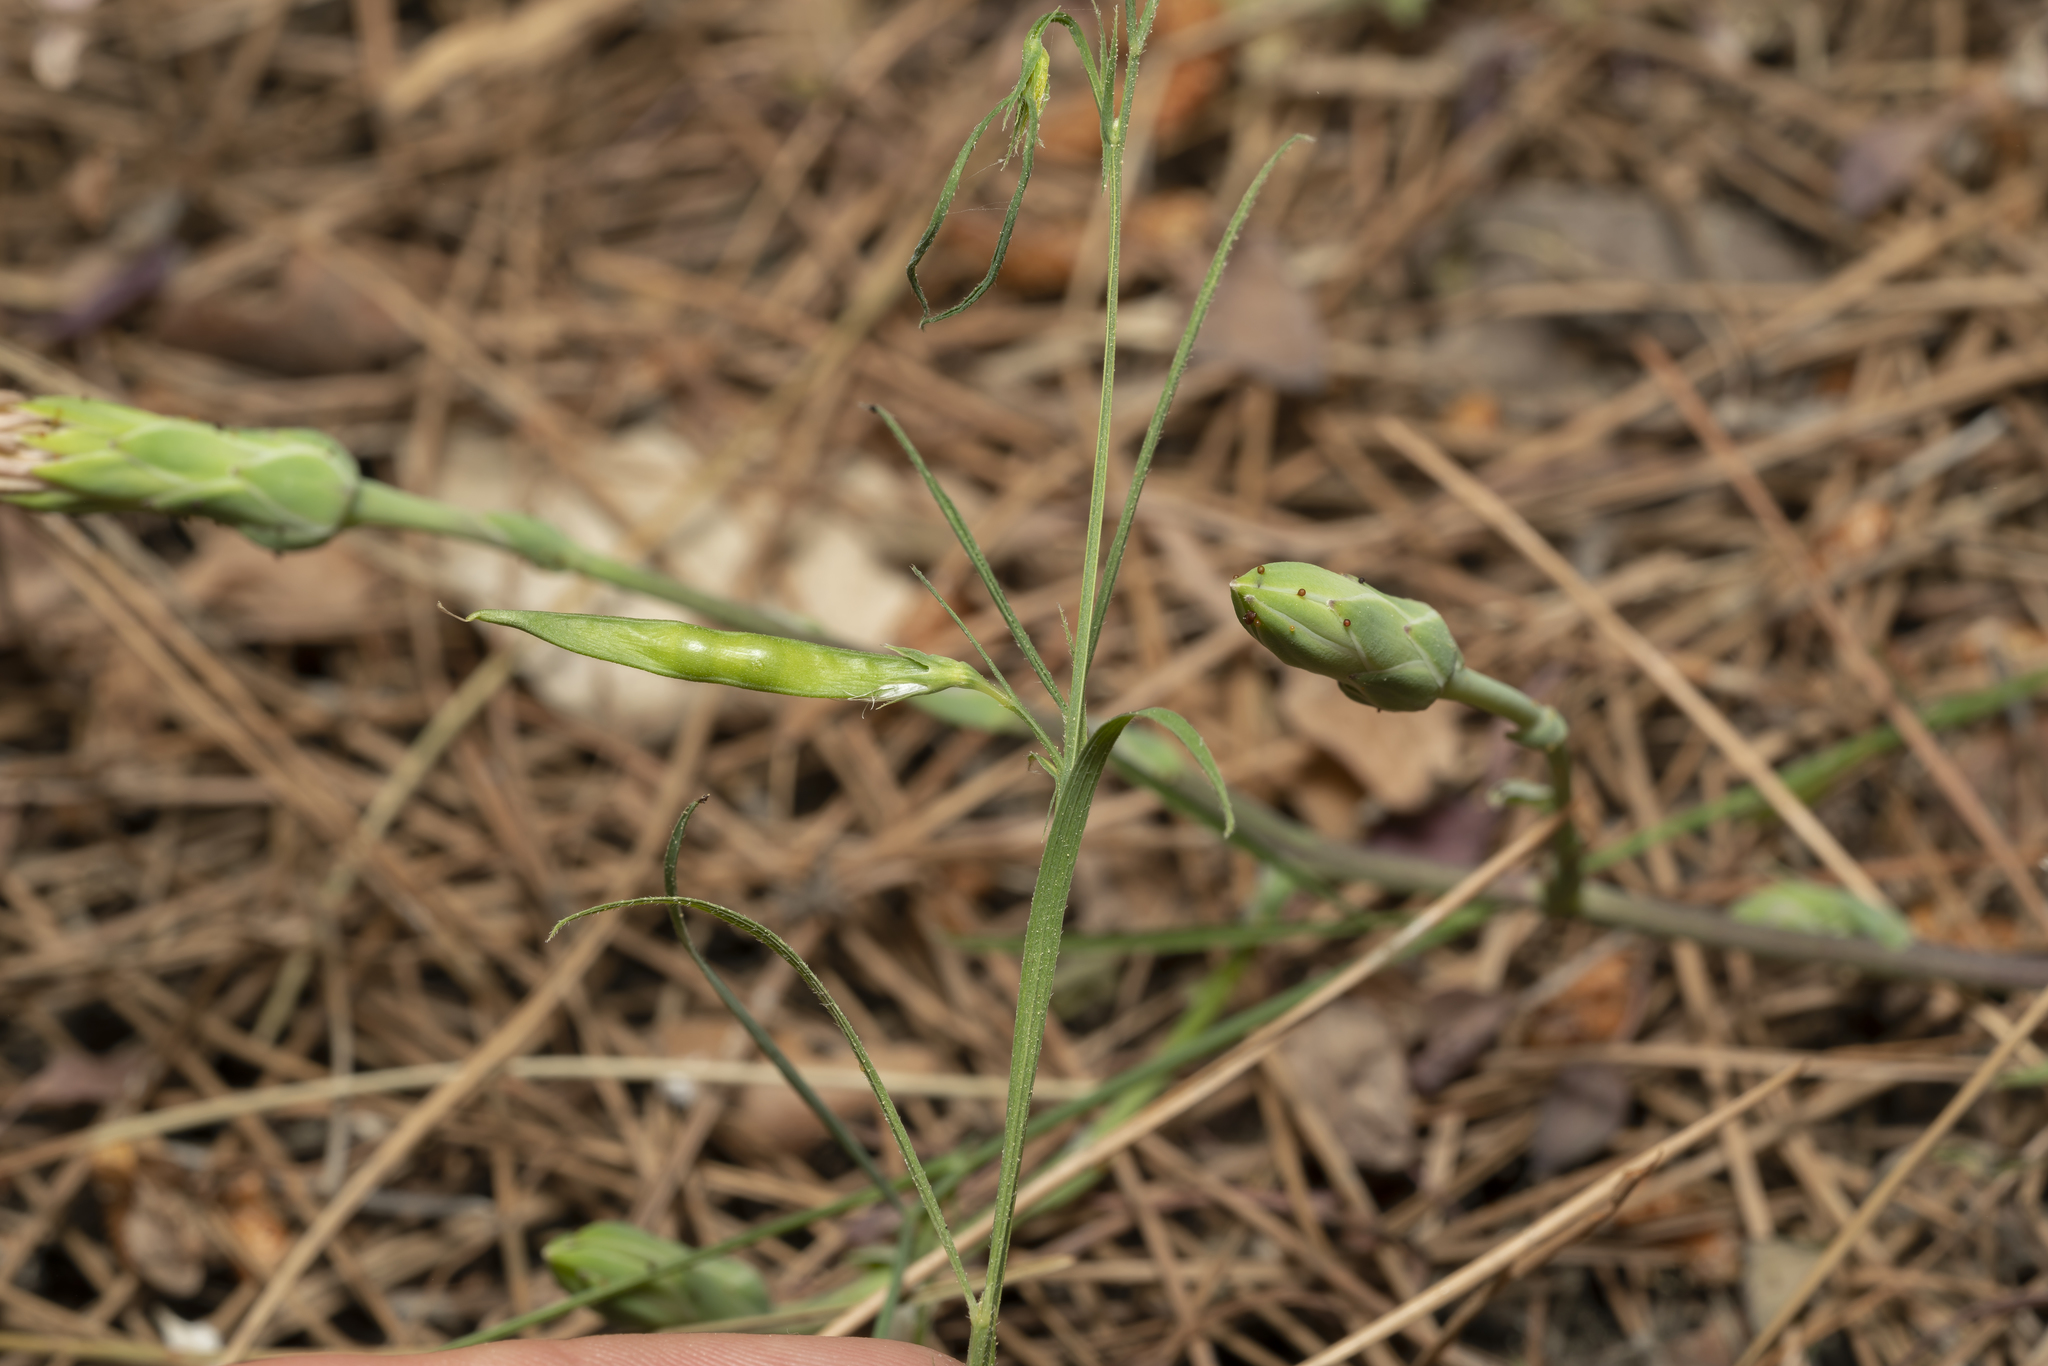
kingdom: Plantae
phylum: Tracheophyta
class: Magnoliopsida
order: Fabales
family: Fabaceae
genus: Lathyrus
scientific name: Lathyrus sphaericus
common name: Grass pea
